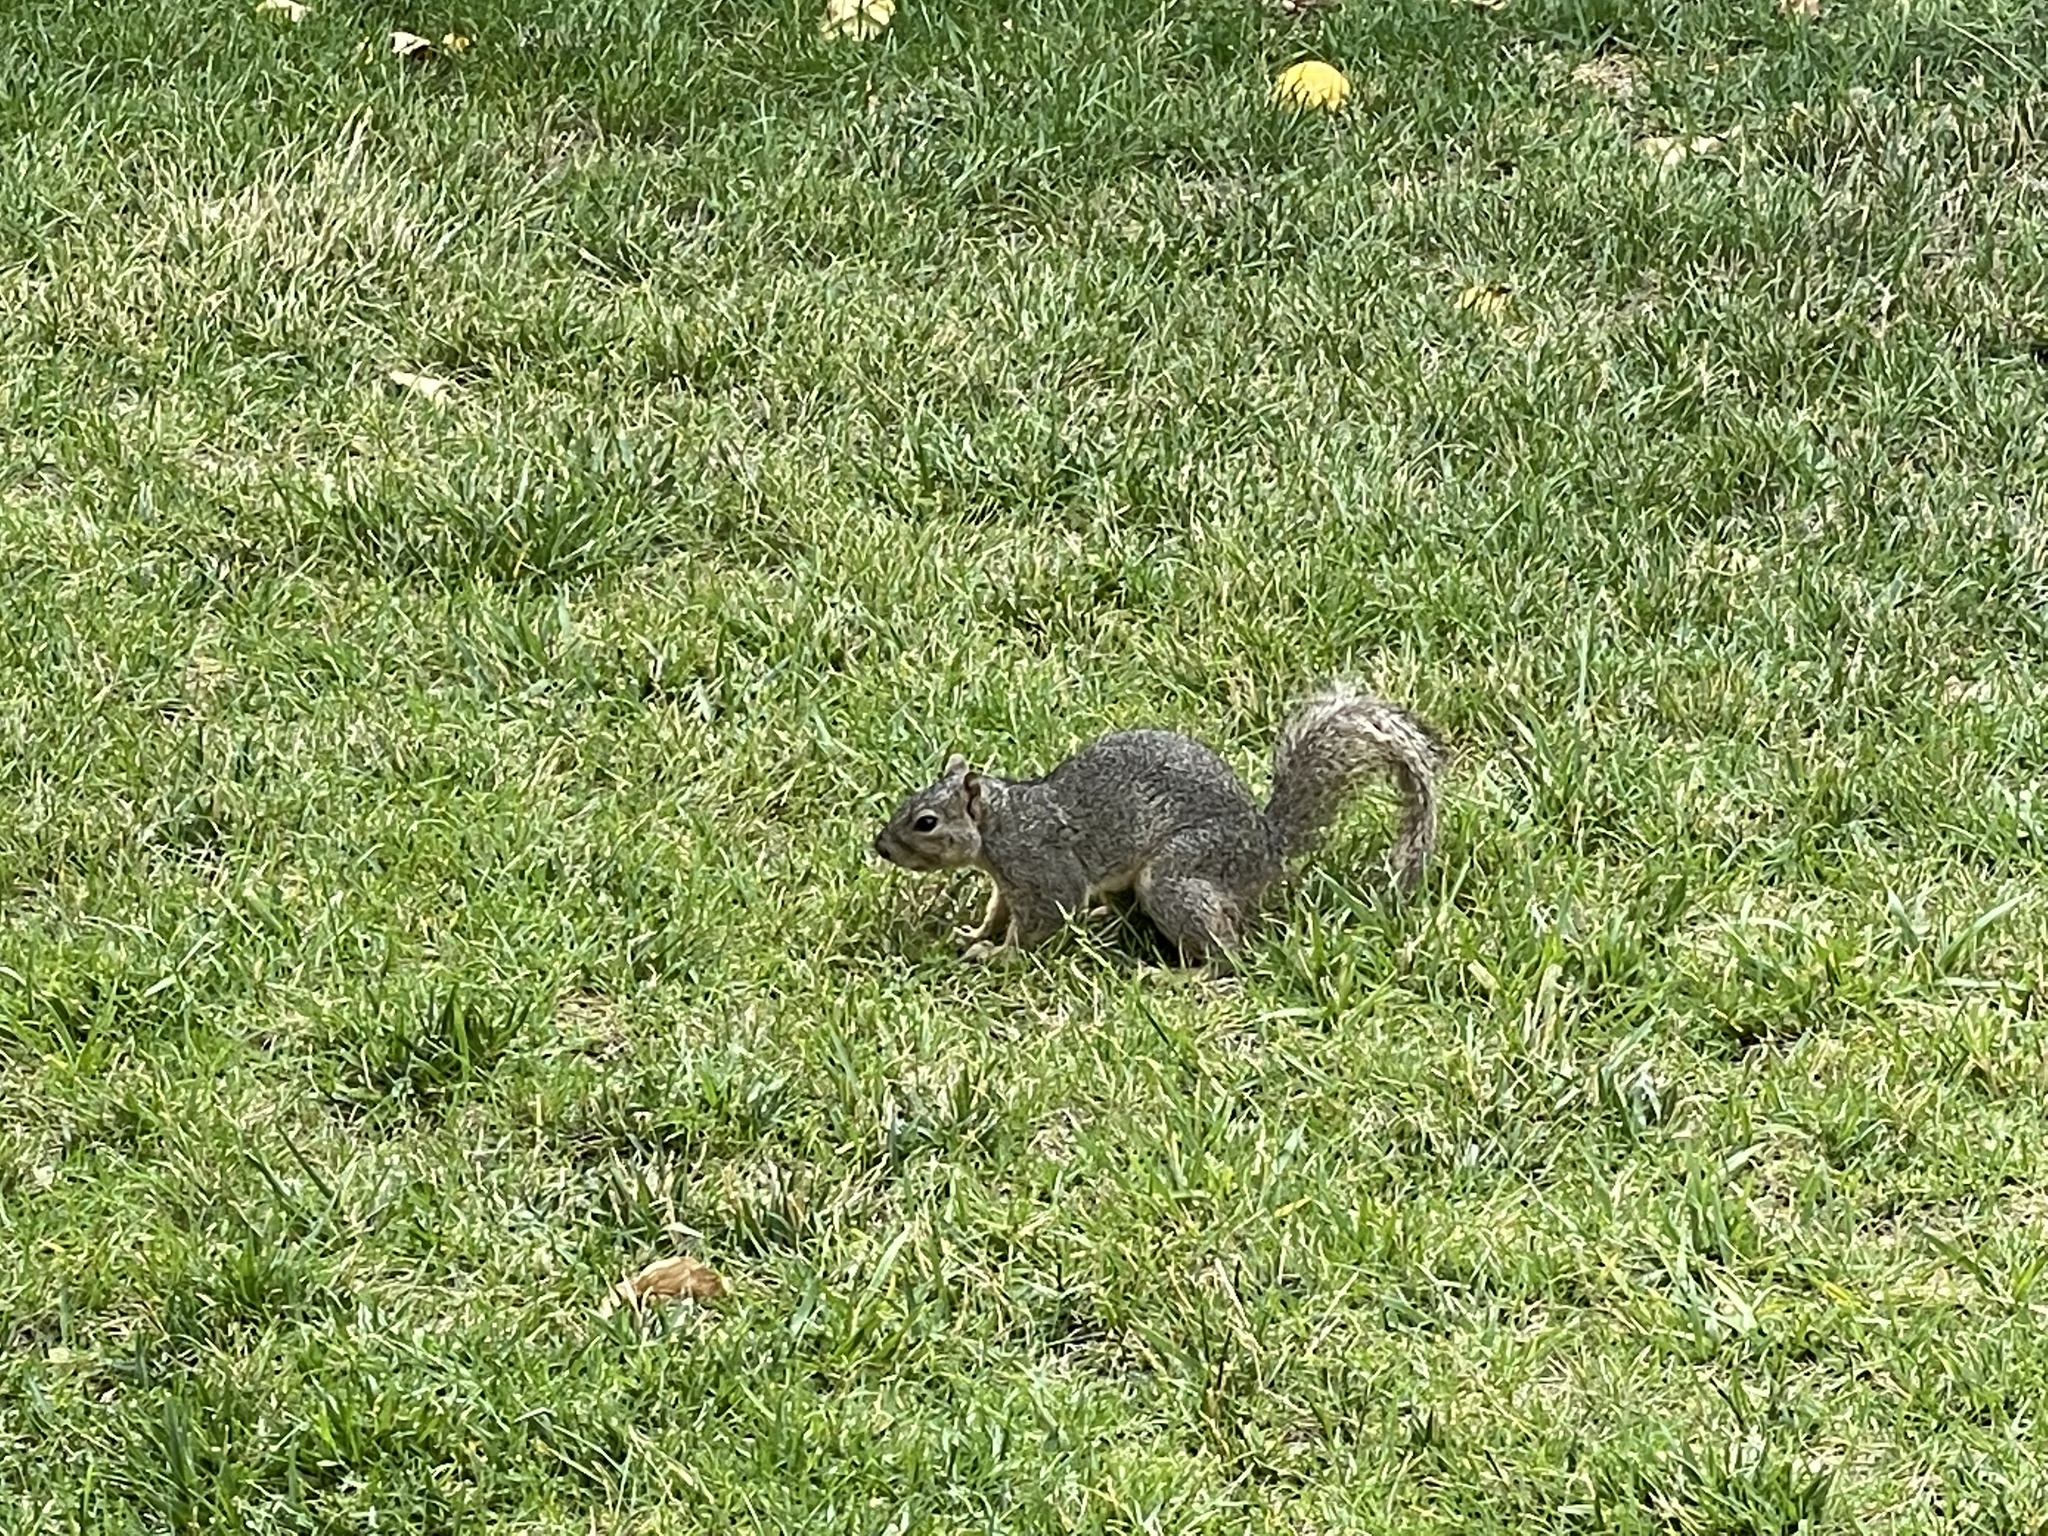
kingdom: Animalia
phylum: Chordata
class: Mammalia
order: Rodentia
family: Sciuridae
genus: Sciurus
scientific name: Sciurus niger
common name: Fox squirrel
